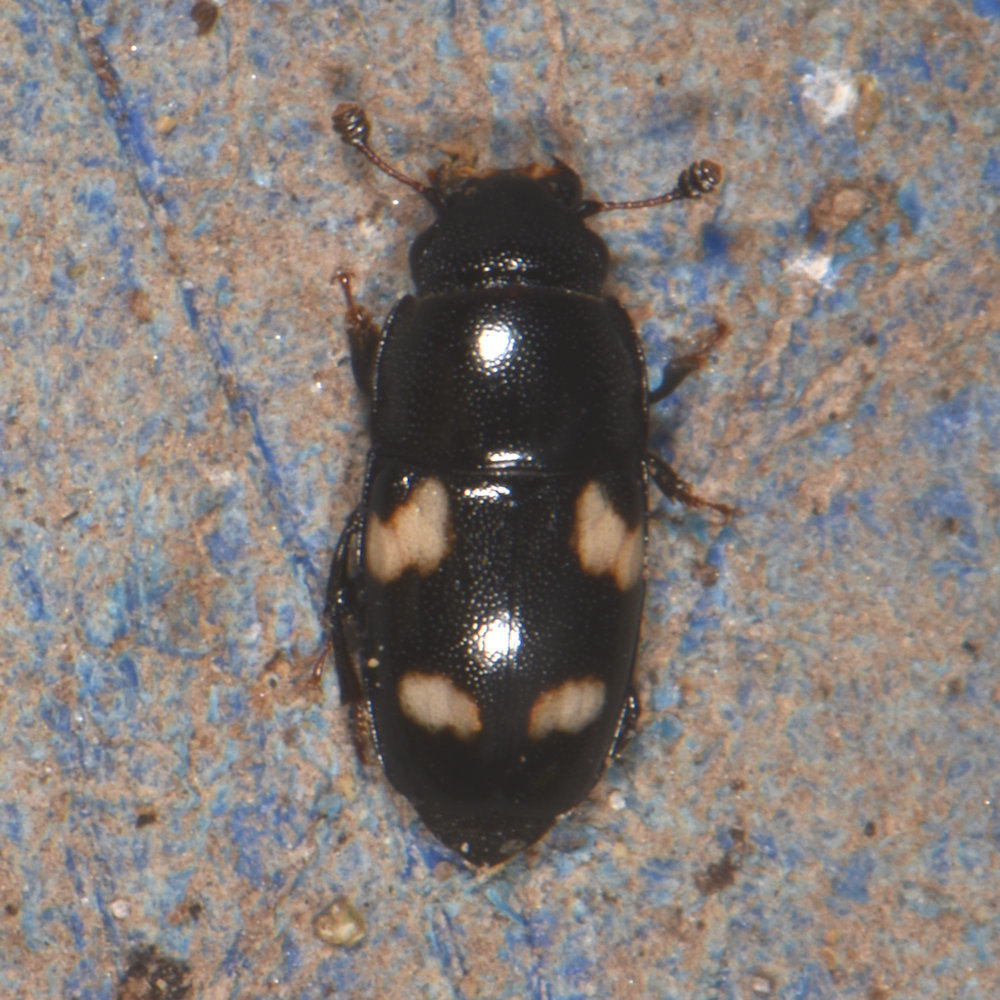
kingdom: Animalia
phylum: Arthropoda
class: Insecta
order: Coleoptera
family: Nitidulidae
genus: Glischrochilus
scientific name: Glischrochilus quadrisignatus
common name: Picnic beetle
